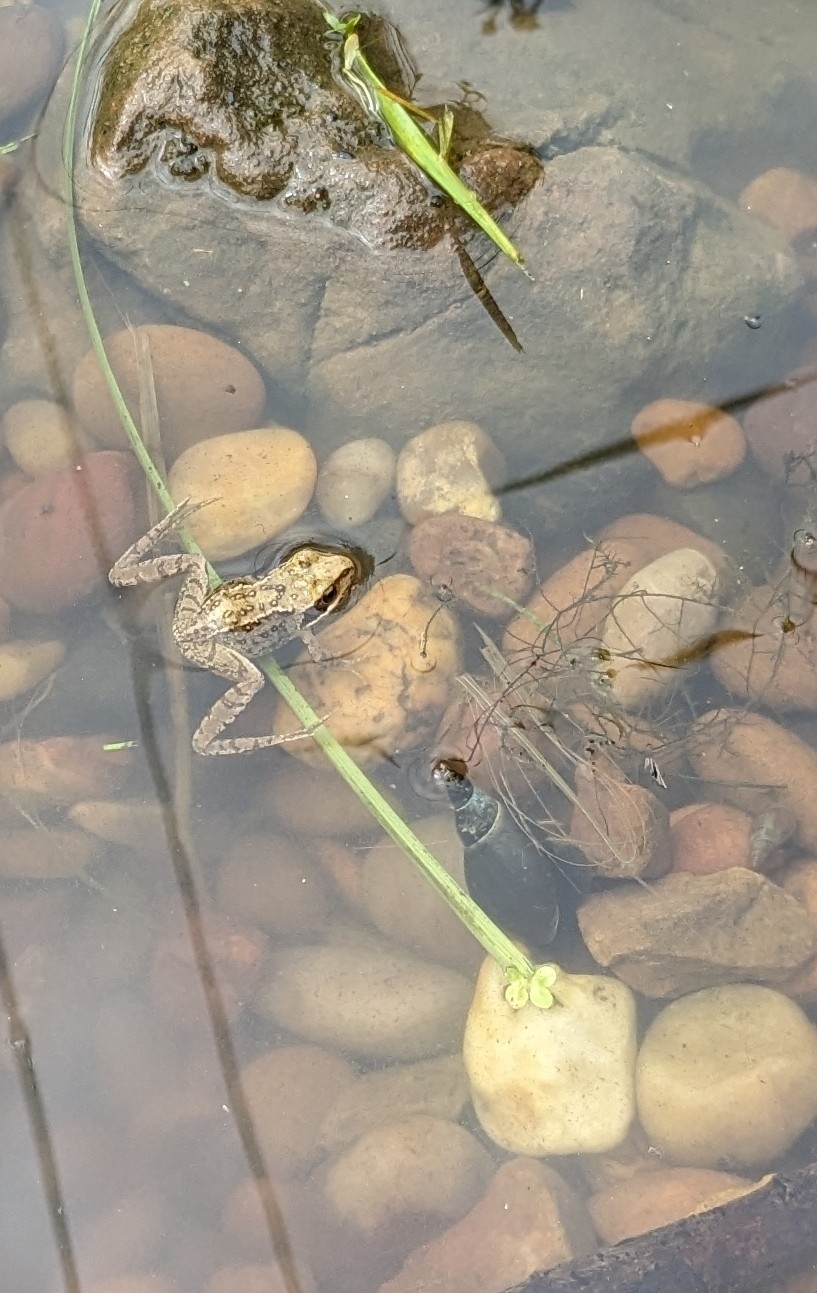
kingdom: Animalia
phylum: Chordata
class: Amphibia
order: Anura
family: Ranidae
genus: Rana
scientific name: Rana temporaria
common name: Common frog
